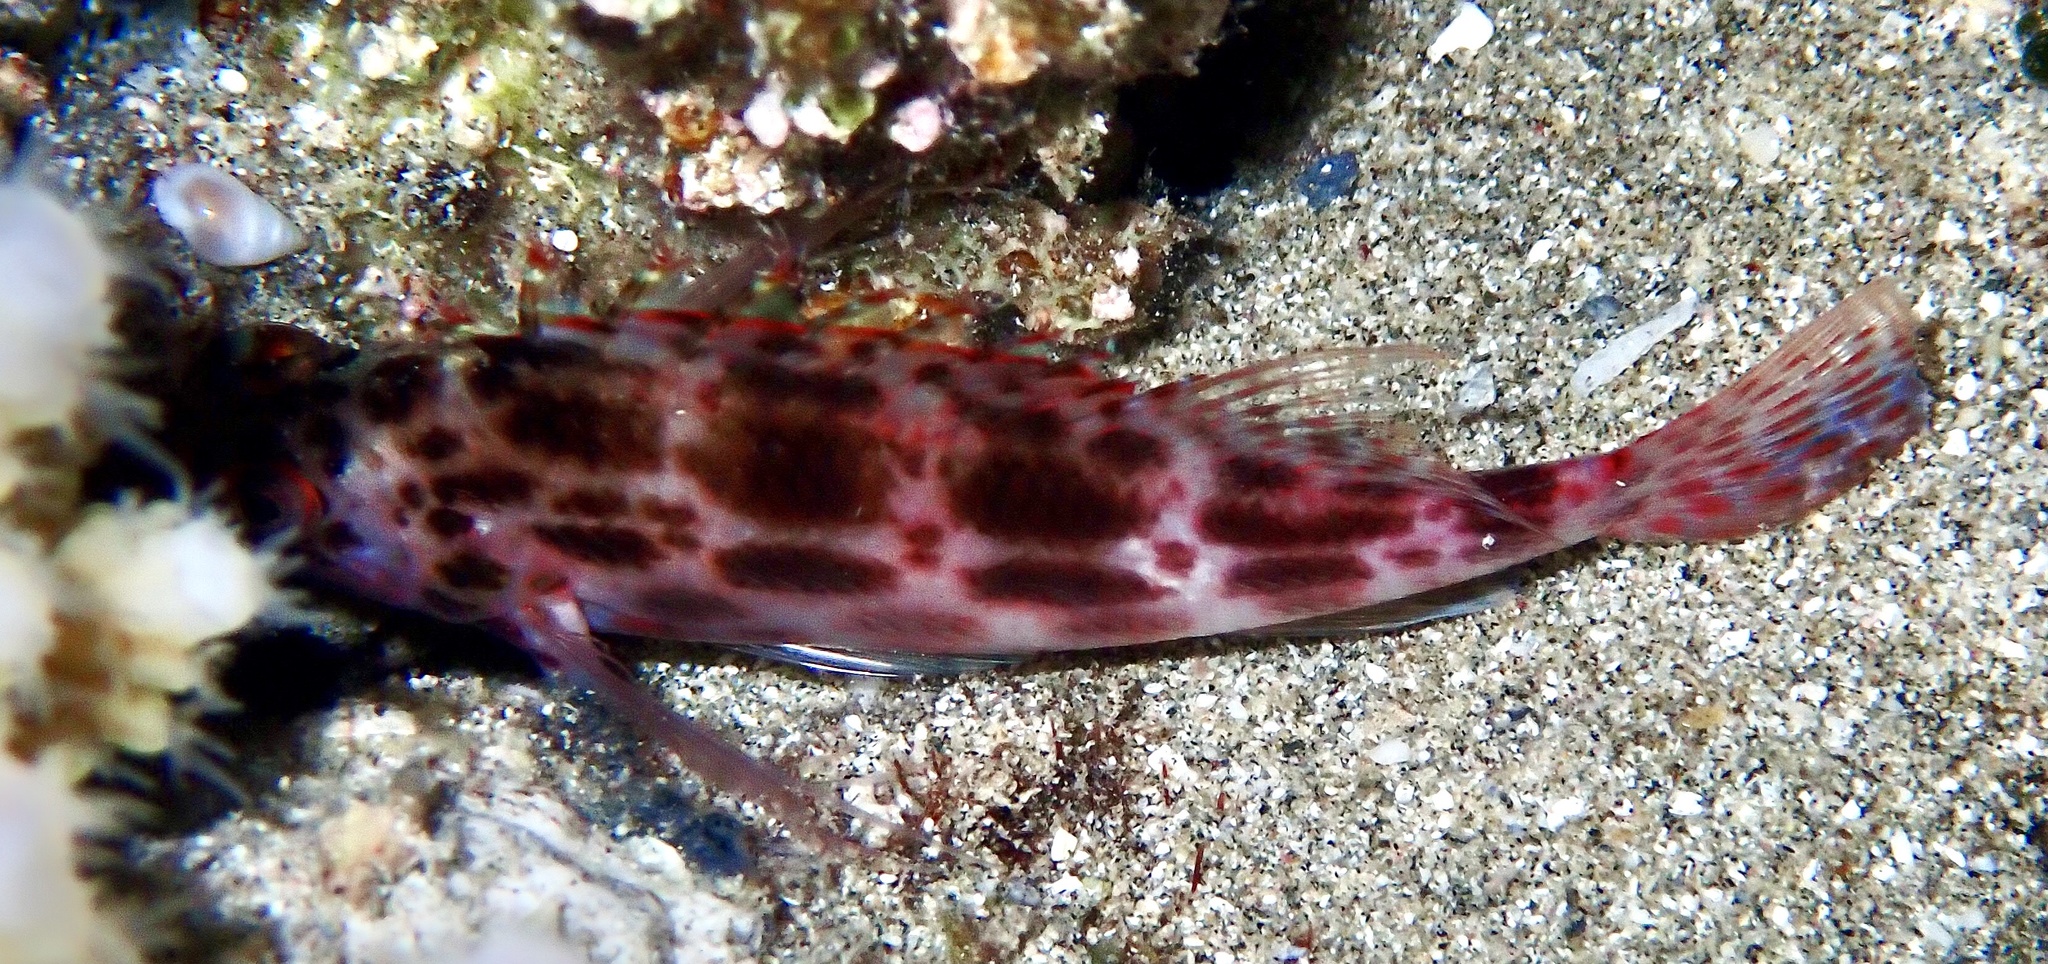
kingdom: Animalia
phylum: Chordata
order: Perciformes
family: Cirrhitidae
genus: Cirrhitichthys
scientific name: Cirrhitichthys oxycephalus
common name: Spotted hawkfish
